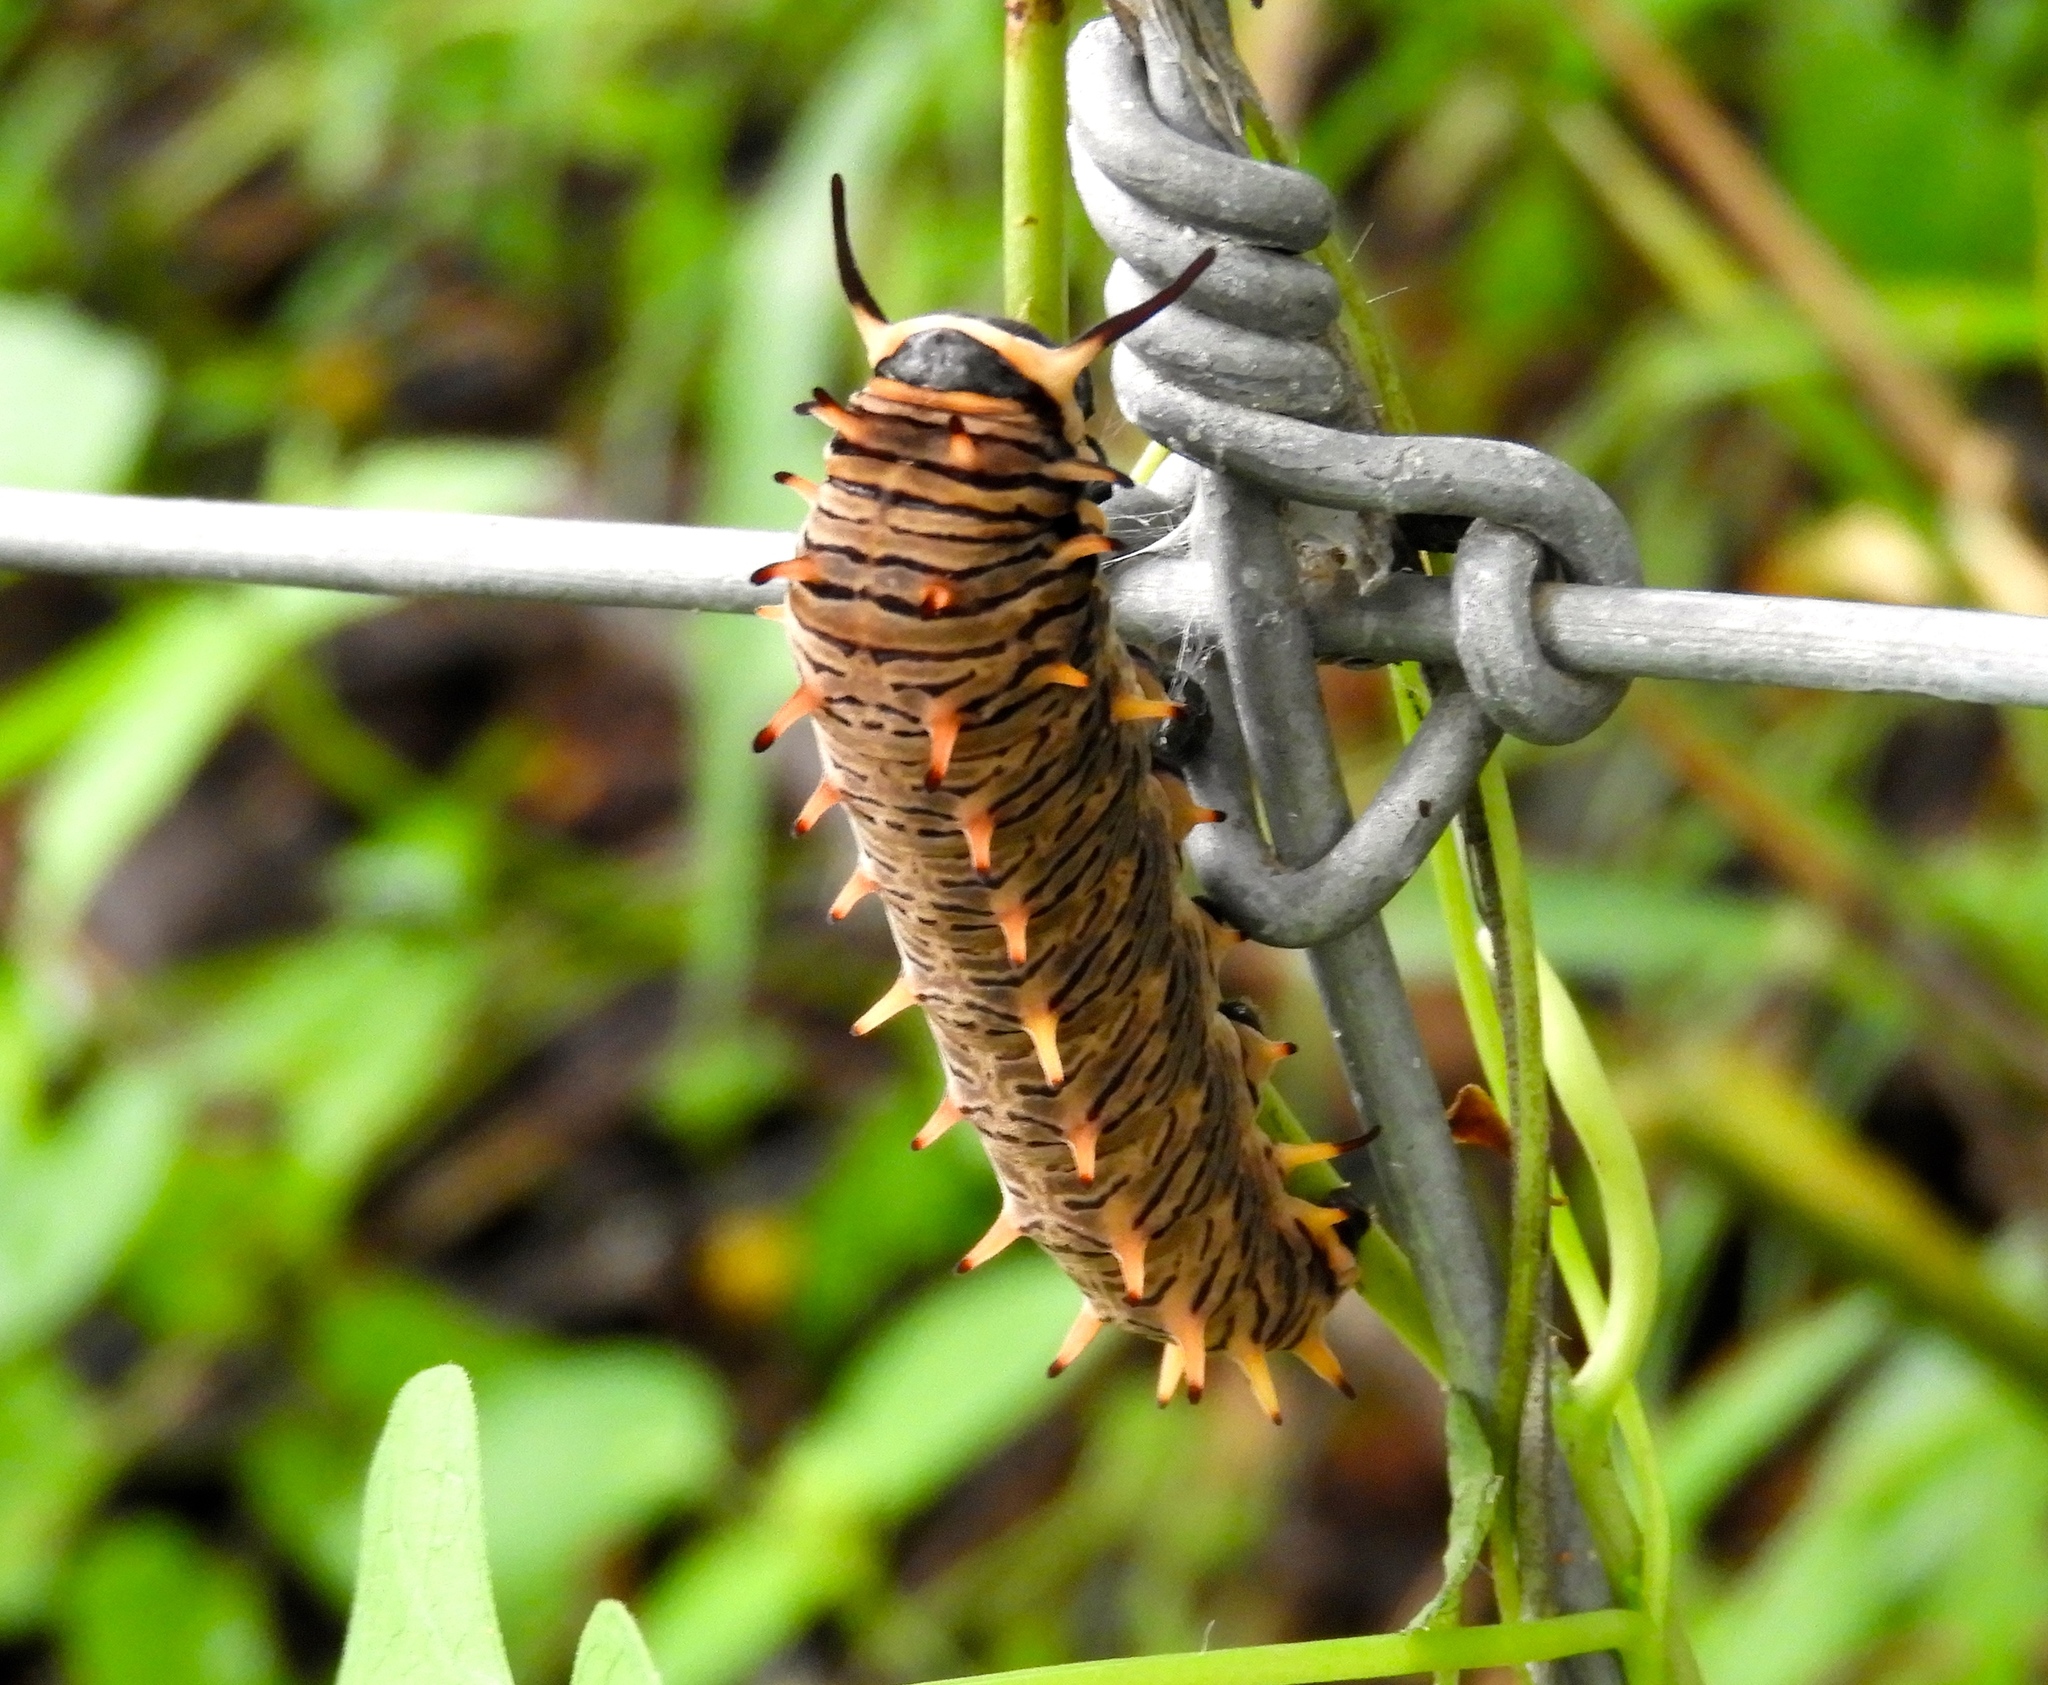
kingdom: Animalia
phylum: Arthropoda
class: Insecta
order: Lepidoptera
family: Papilionidae
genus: Battus
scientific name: Battus polydamas
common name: Polydamas swallowtail
